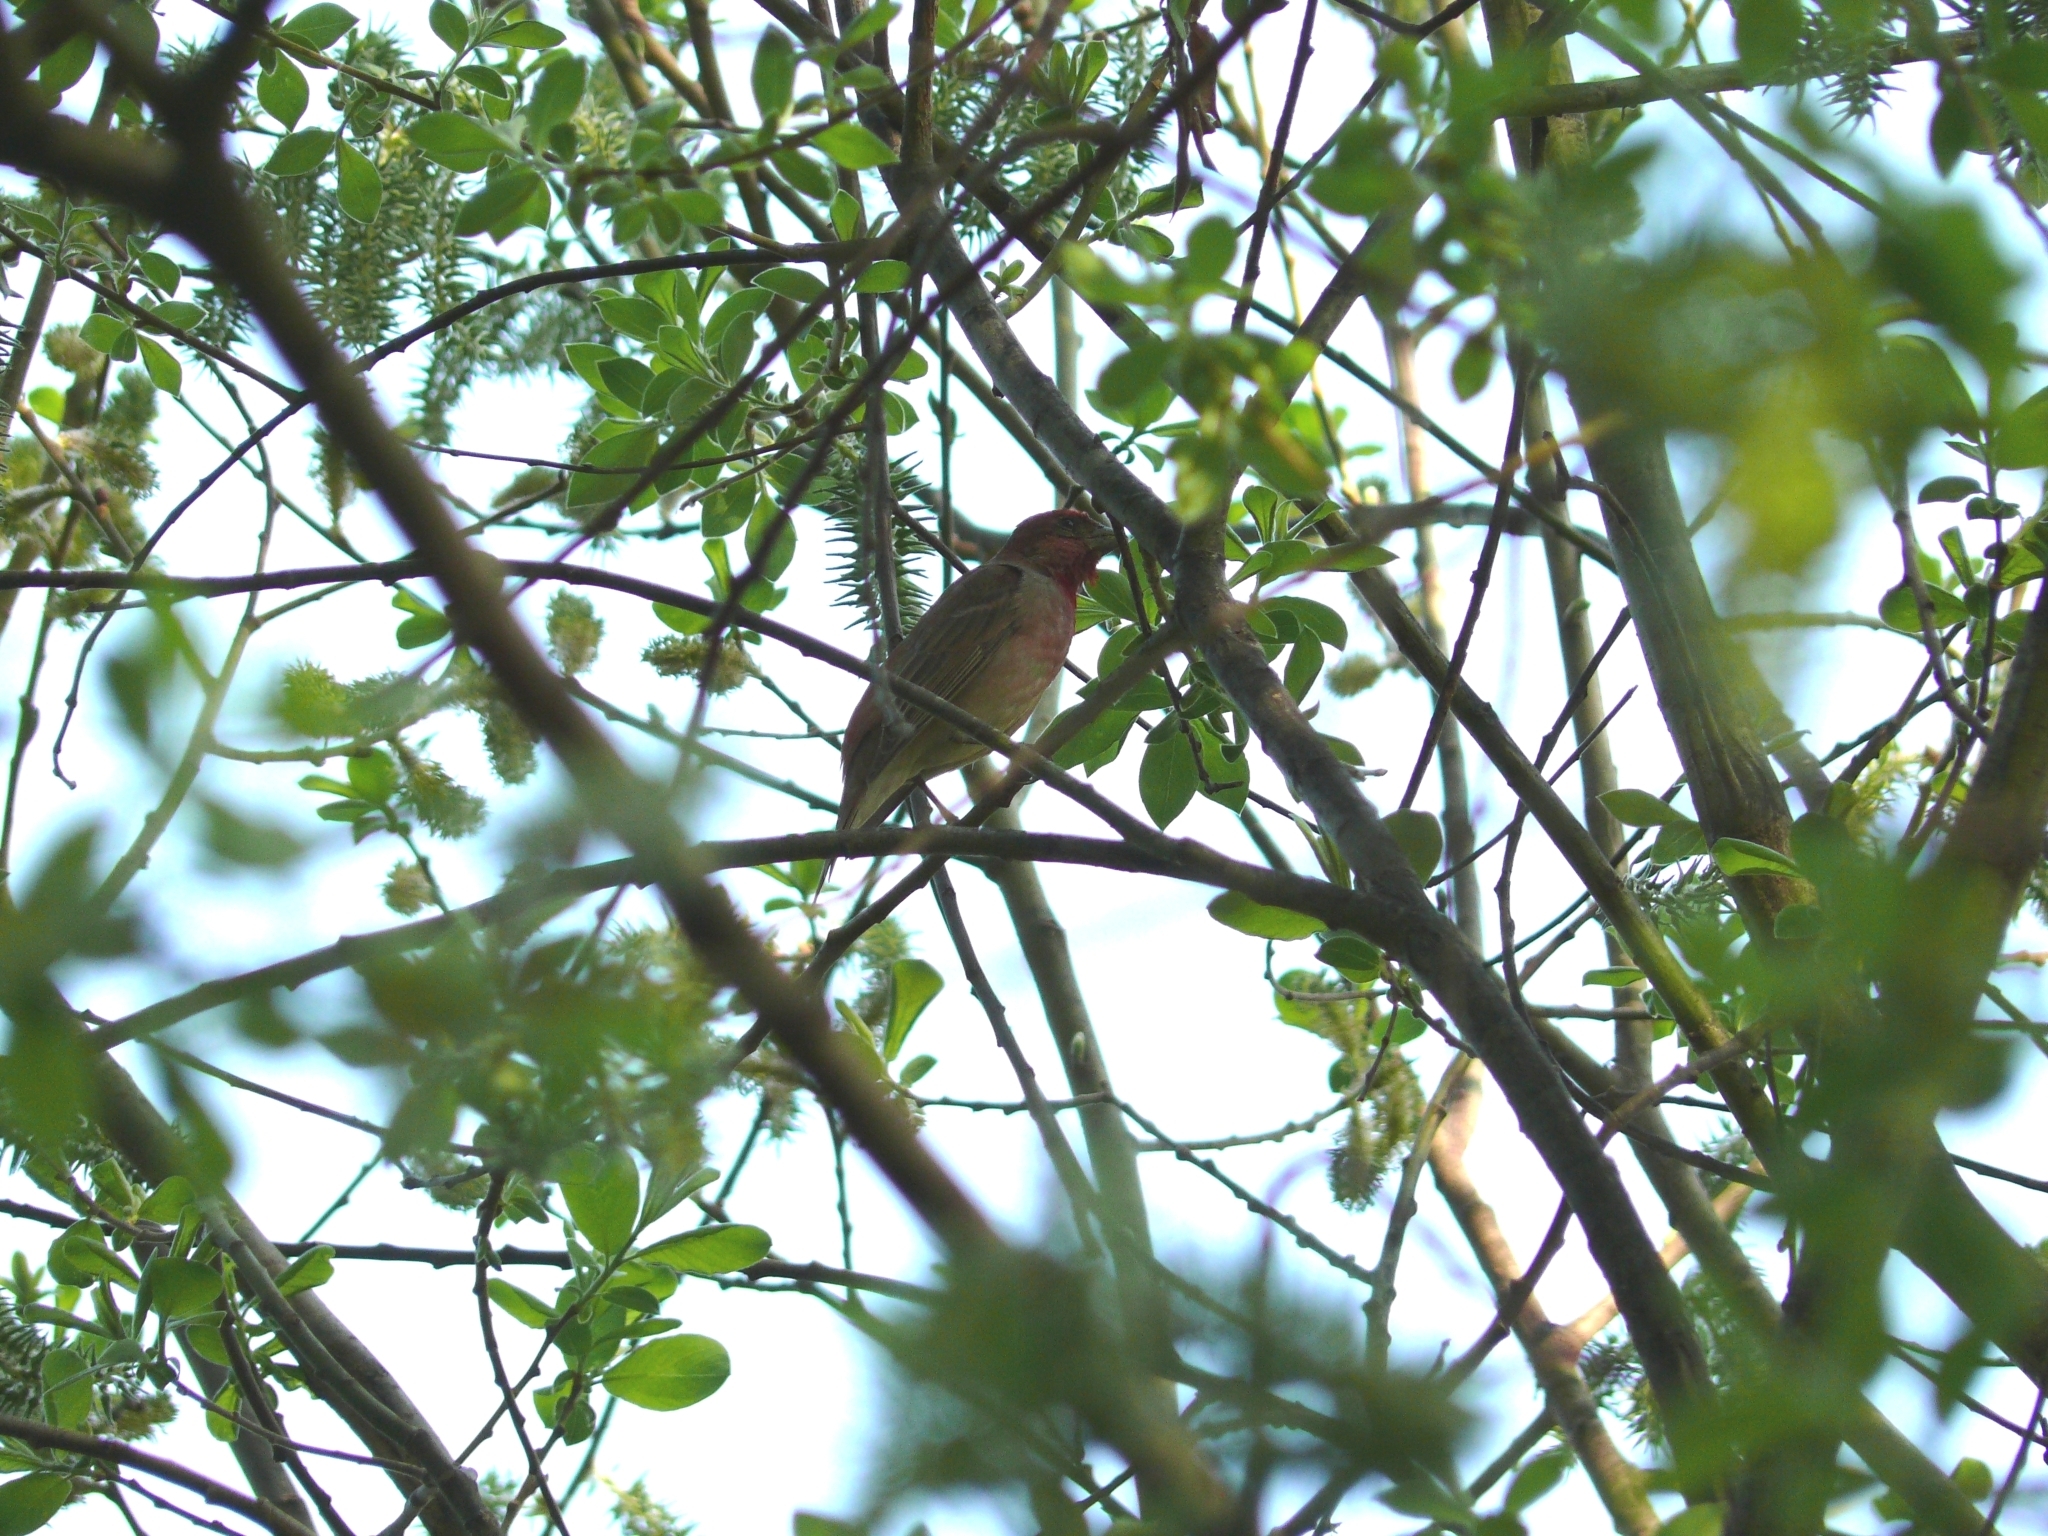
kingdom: Animalia
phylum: Chordata
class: Aves
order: Passeriformes
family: Fringillidae
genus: Carpodacus
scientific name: Carpodacus erythrinus
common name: Common rosefinch
